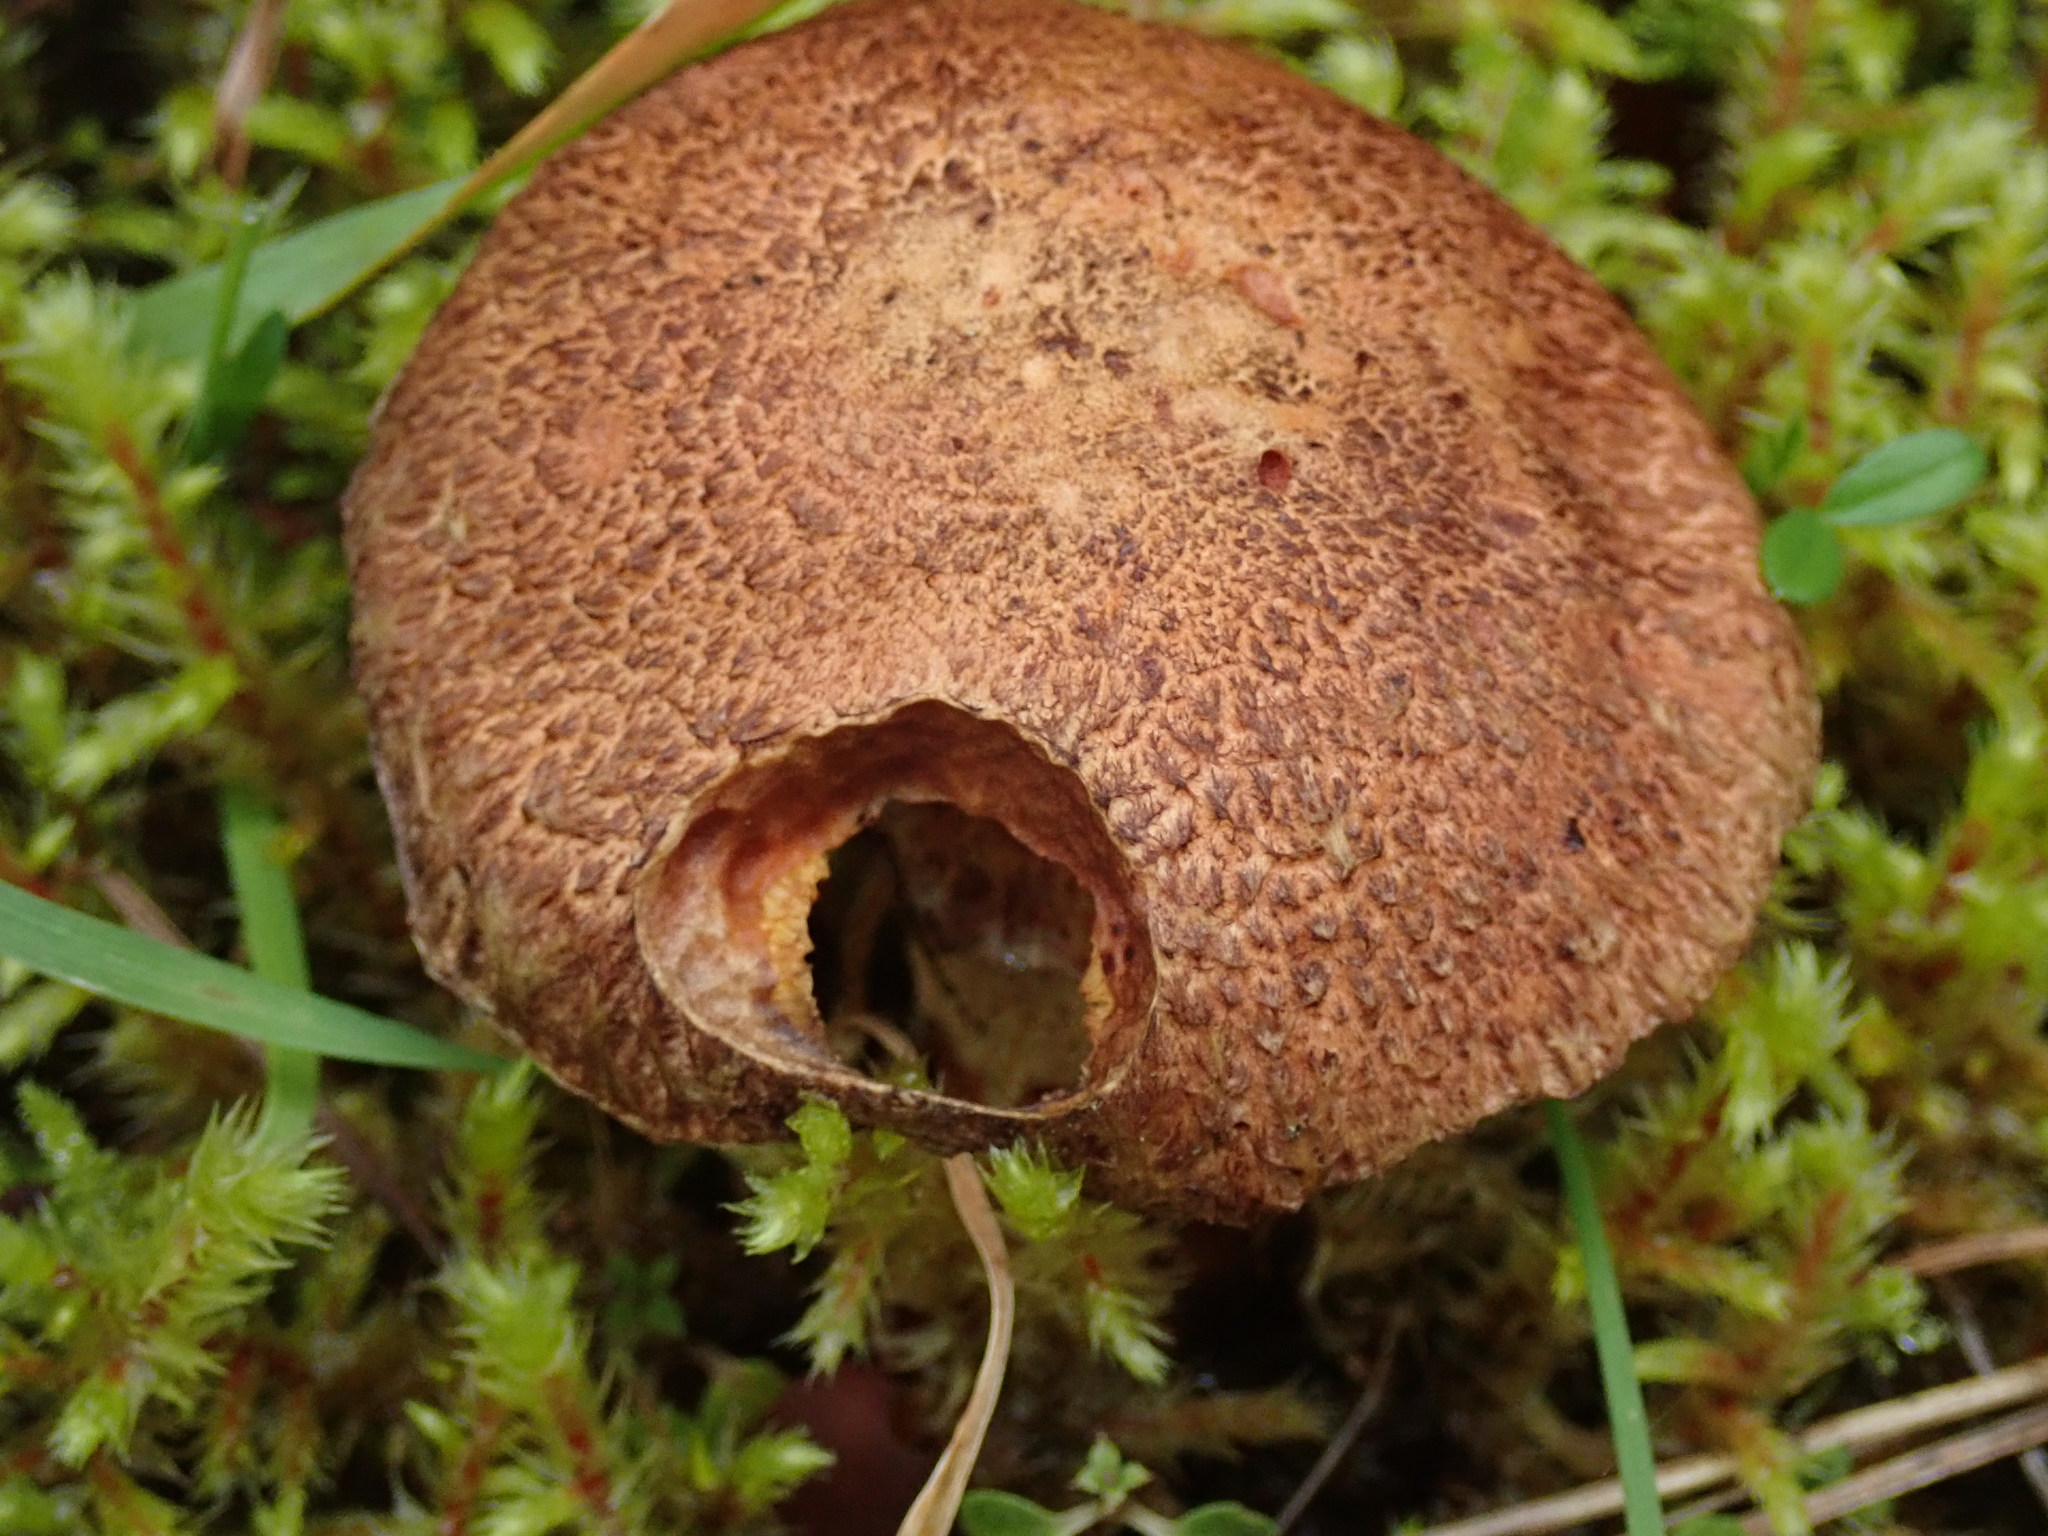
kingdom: Fungi
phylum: Basidiomycota
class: Agaricomycetes
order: Boletales
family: Suillaceae
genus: Suillus
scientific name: Suillus lakei
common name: Western painted suillus
